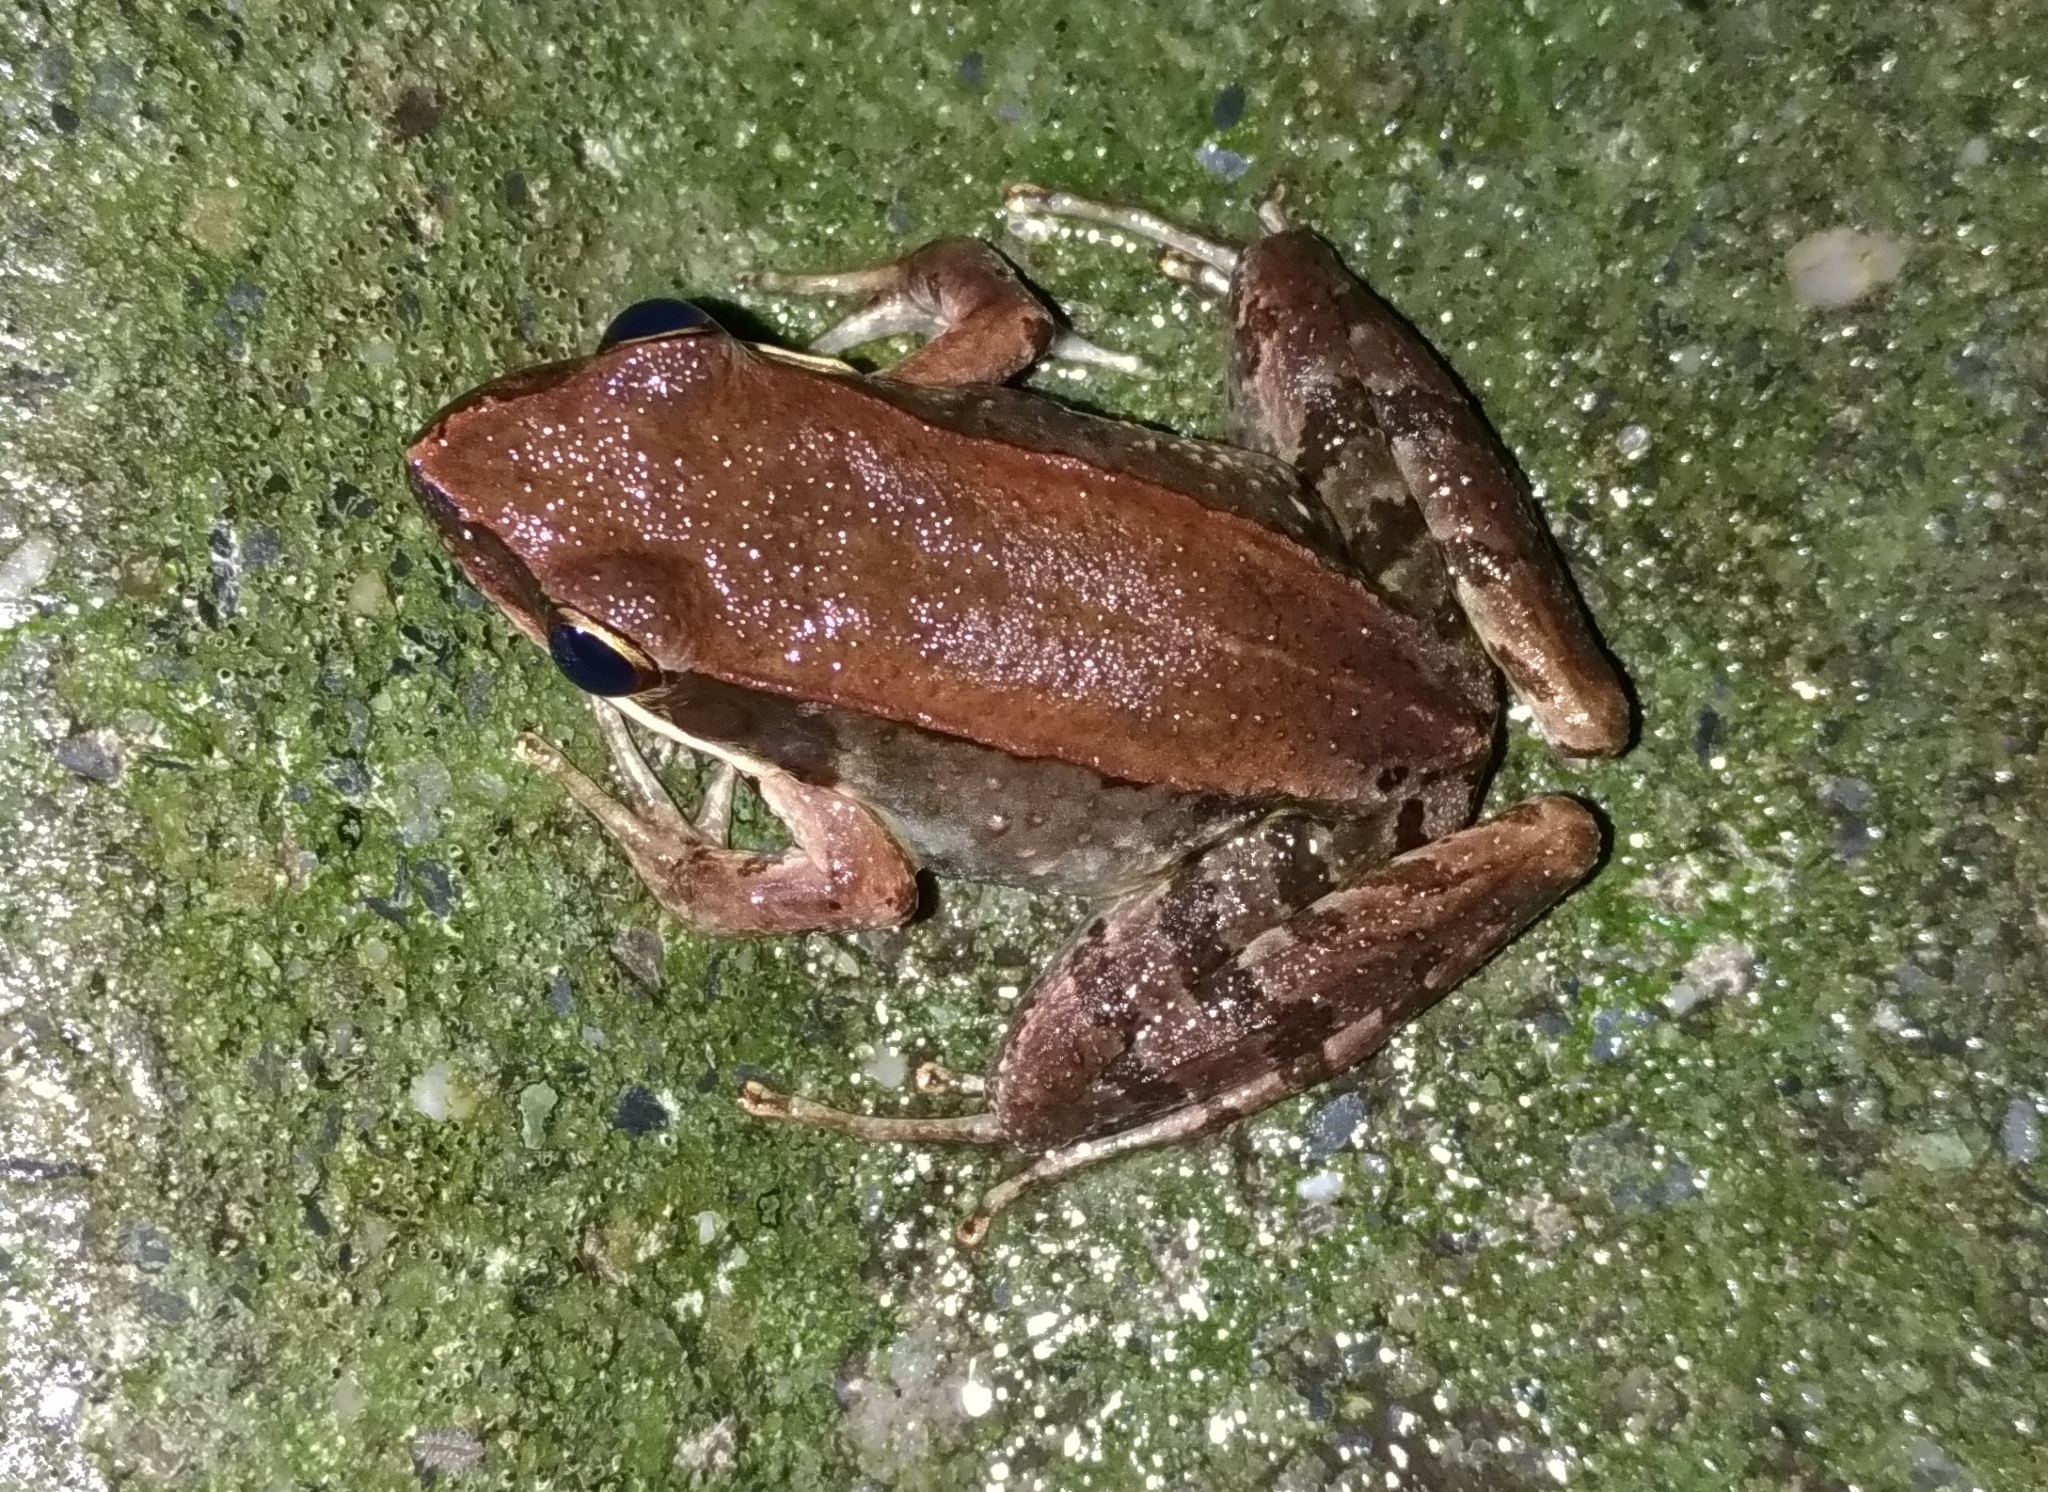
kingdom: Animalia
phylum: Chordata
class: Amphibia
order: Anura
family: Ranidae
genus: Nidirana
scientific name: Nidirana adenopleura
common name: Olive frog
